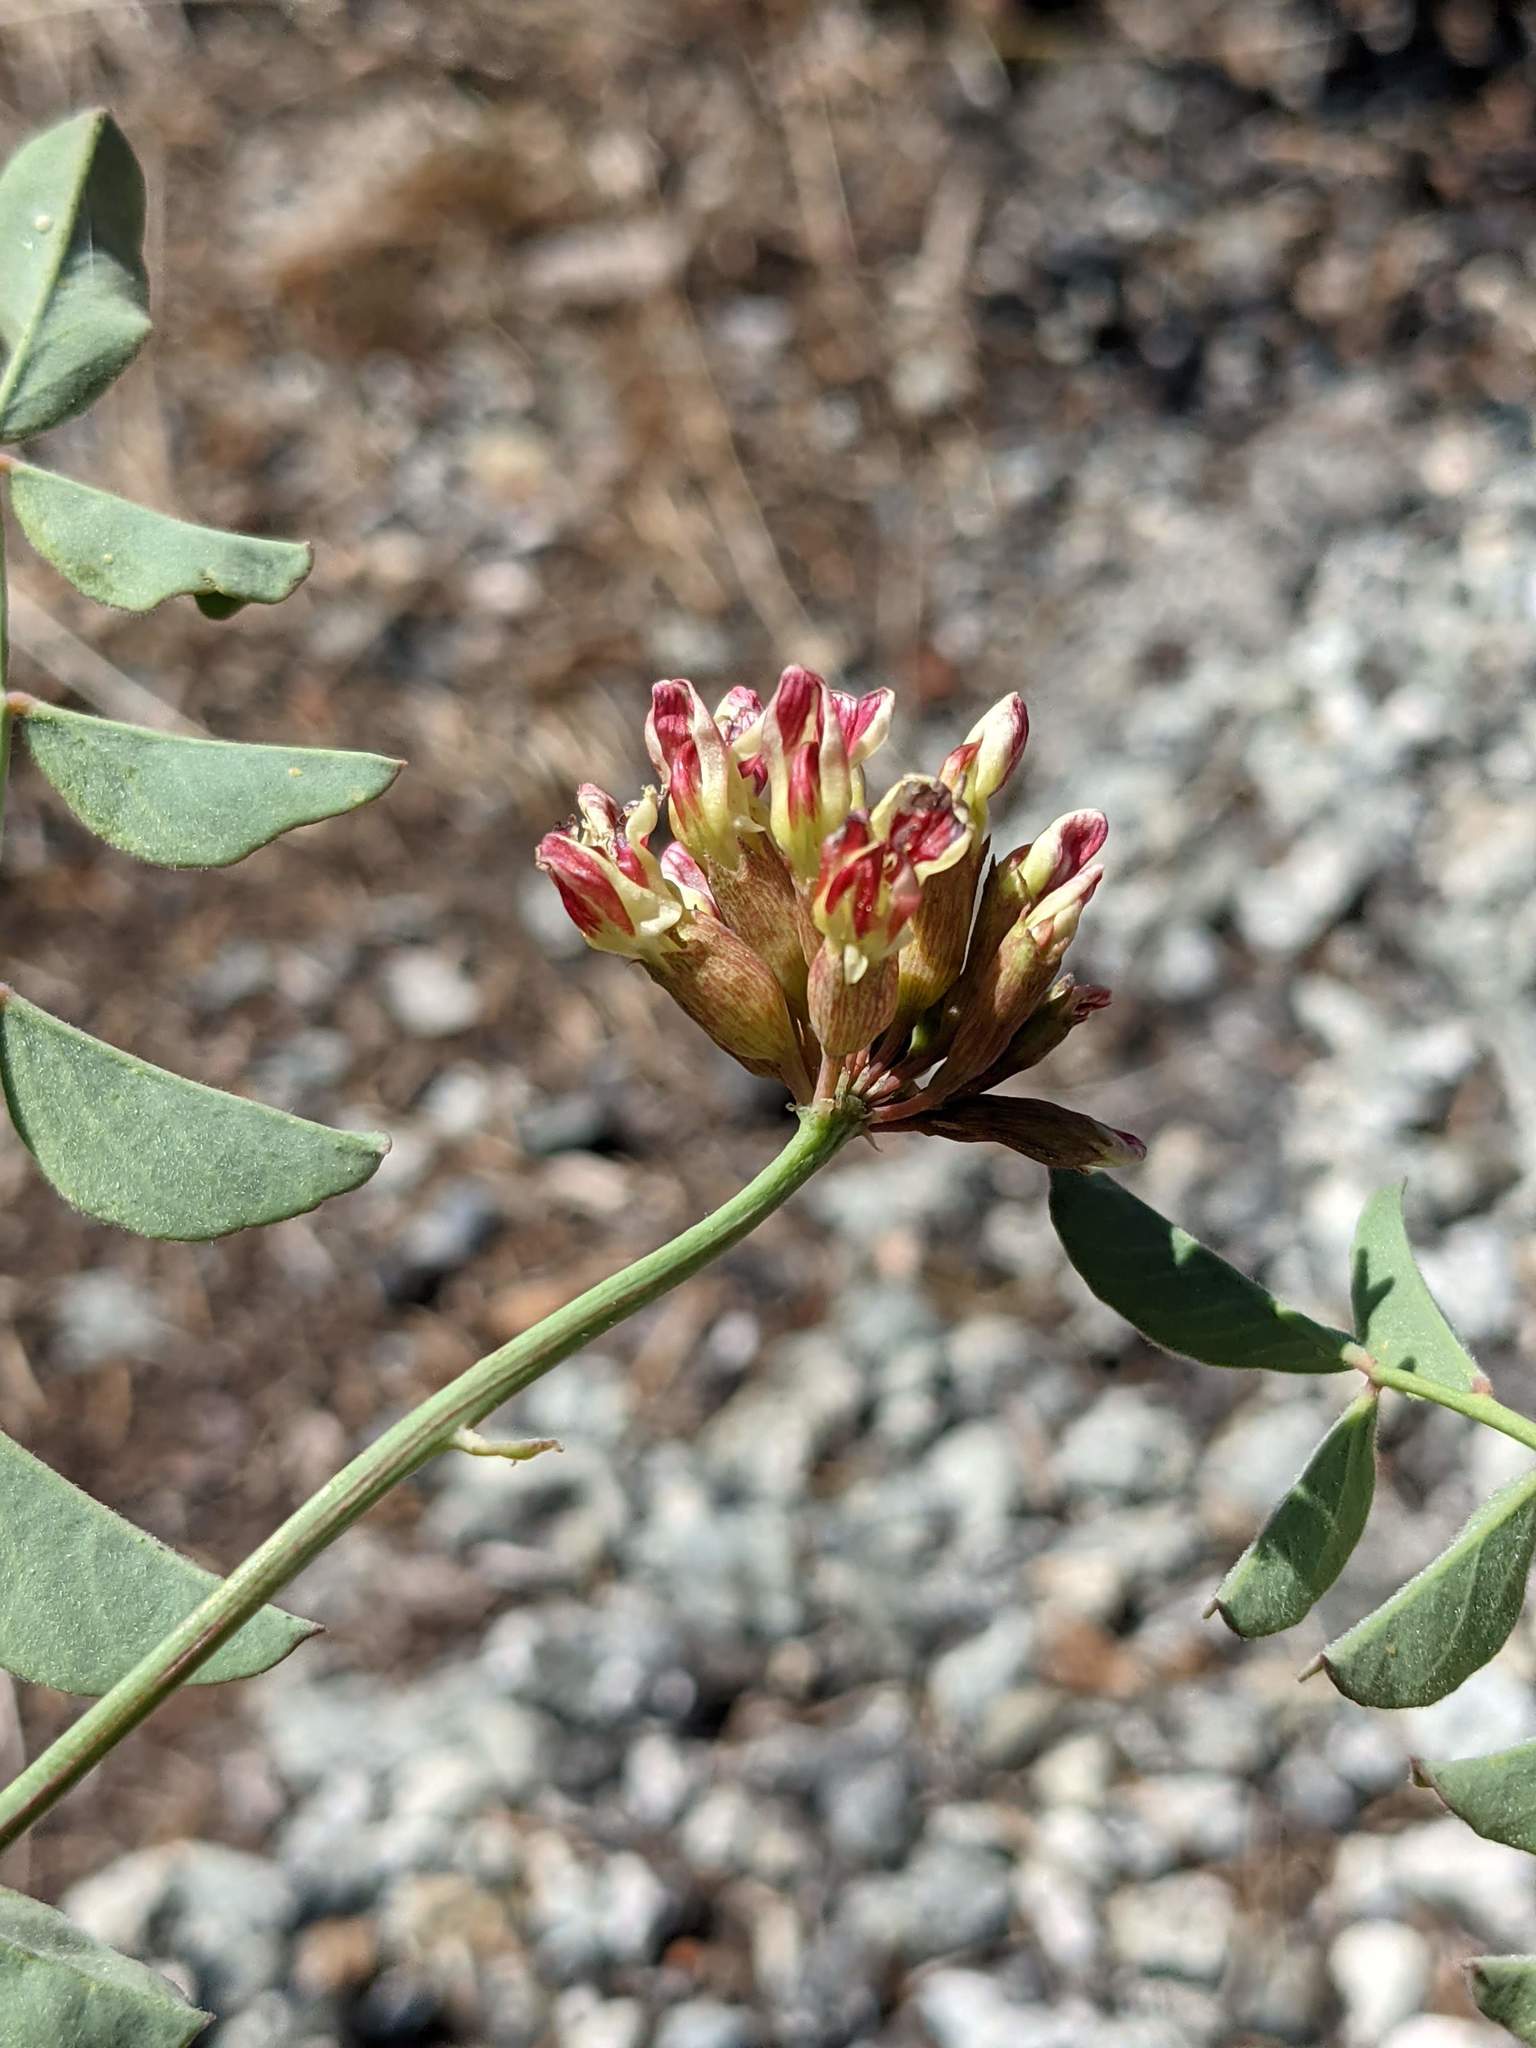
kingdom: Plantae
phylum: Tracheophyta
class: Magnoliopsida
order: Fabales
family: Fabaceae
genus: Hosackia
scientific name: Hosackia crassifolia
